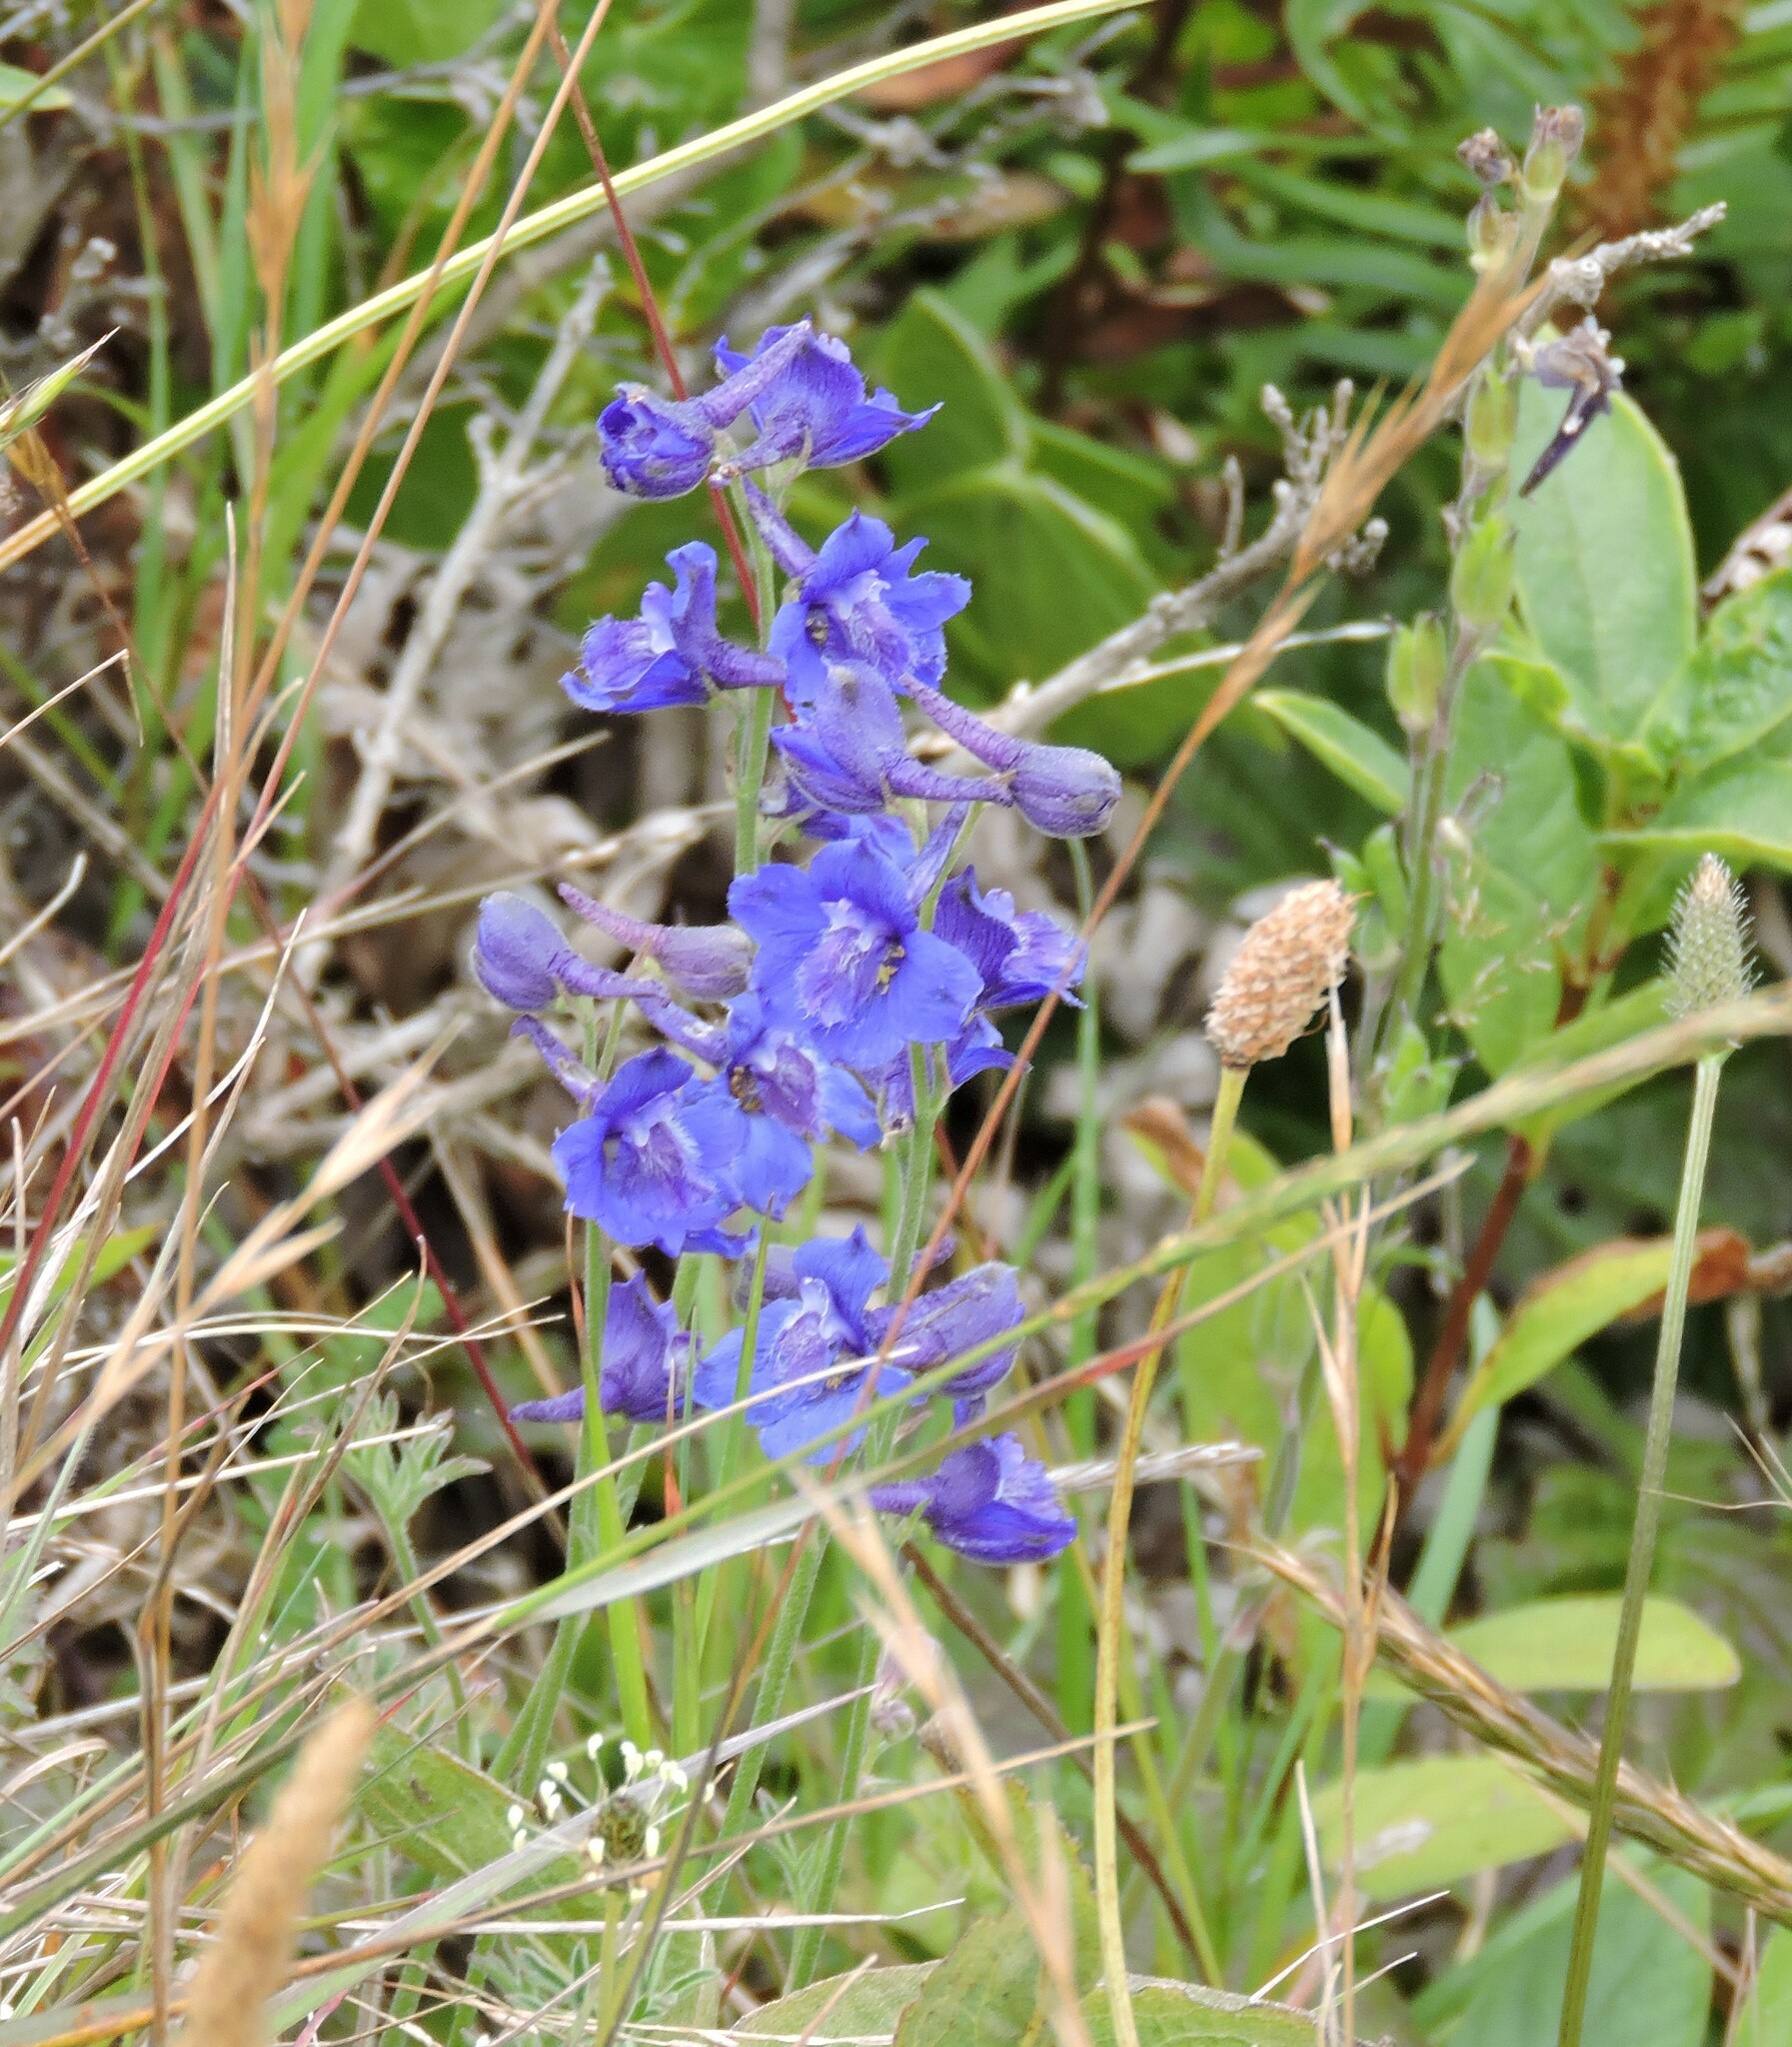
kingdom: Plantae
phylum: Tracheophyta
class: Magnoliopsida
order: Ranunculales
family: Ranunculaceae
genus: Delphinium
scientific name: Delphinium hesperium
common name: Western larkspur
